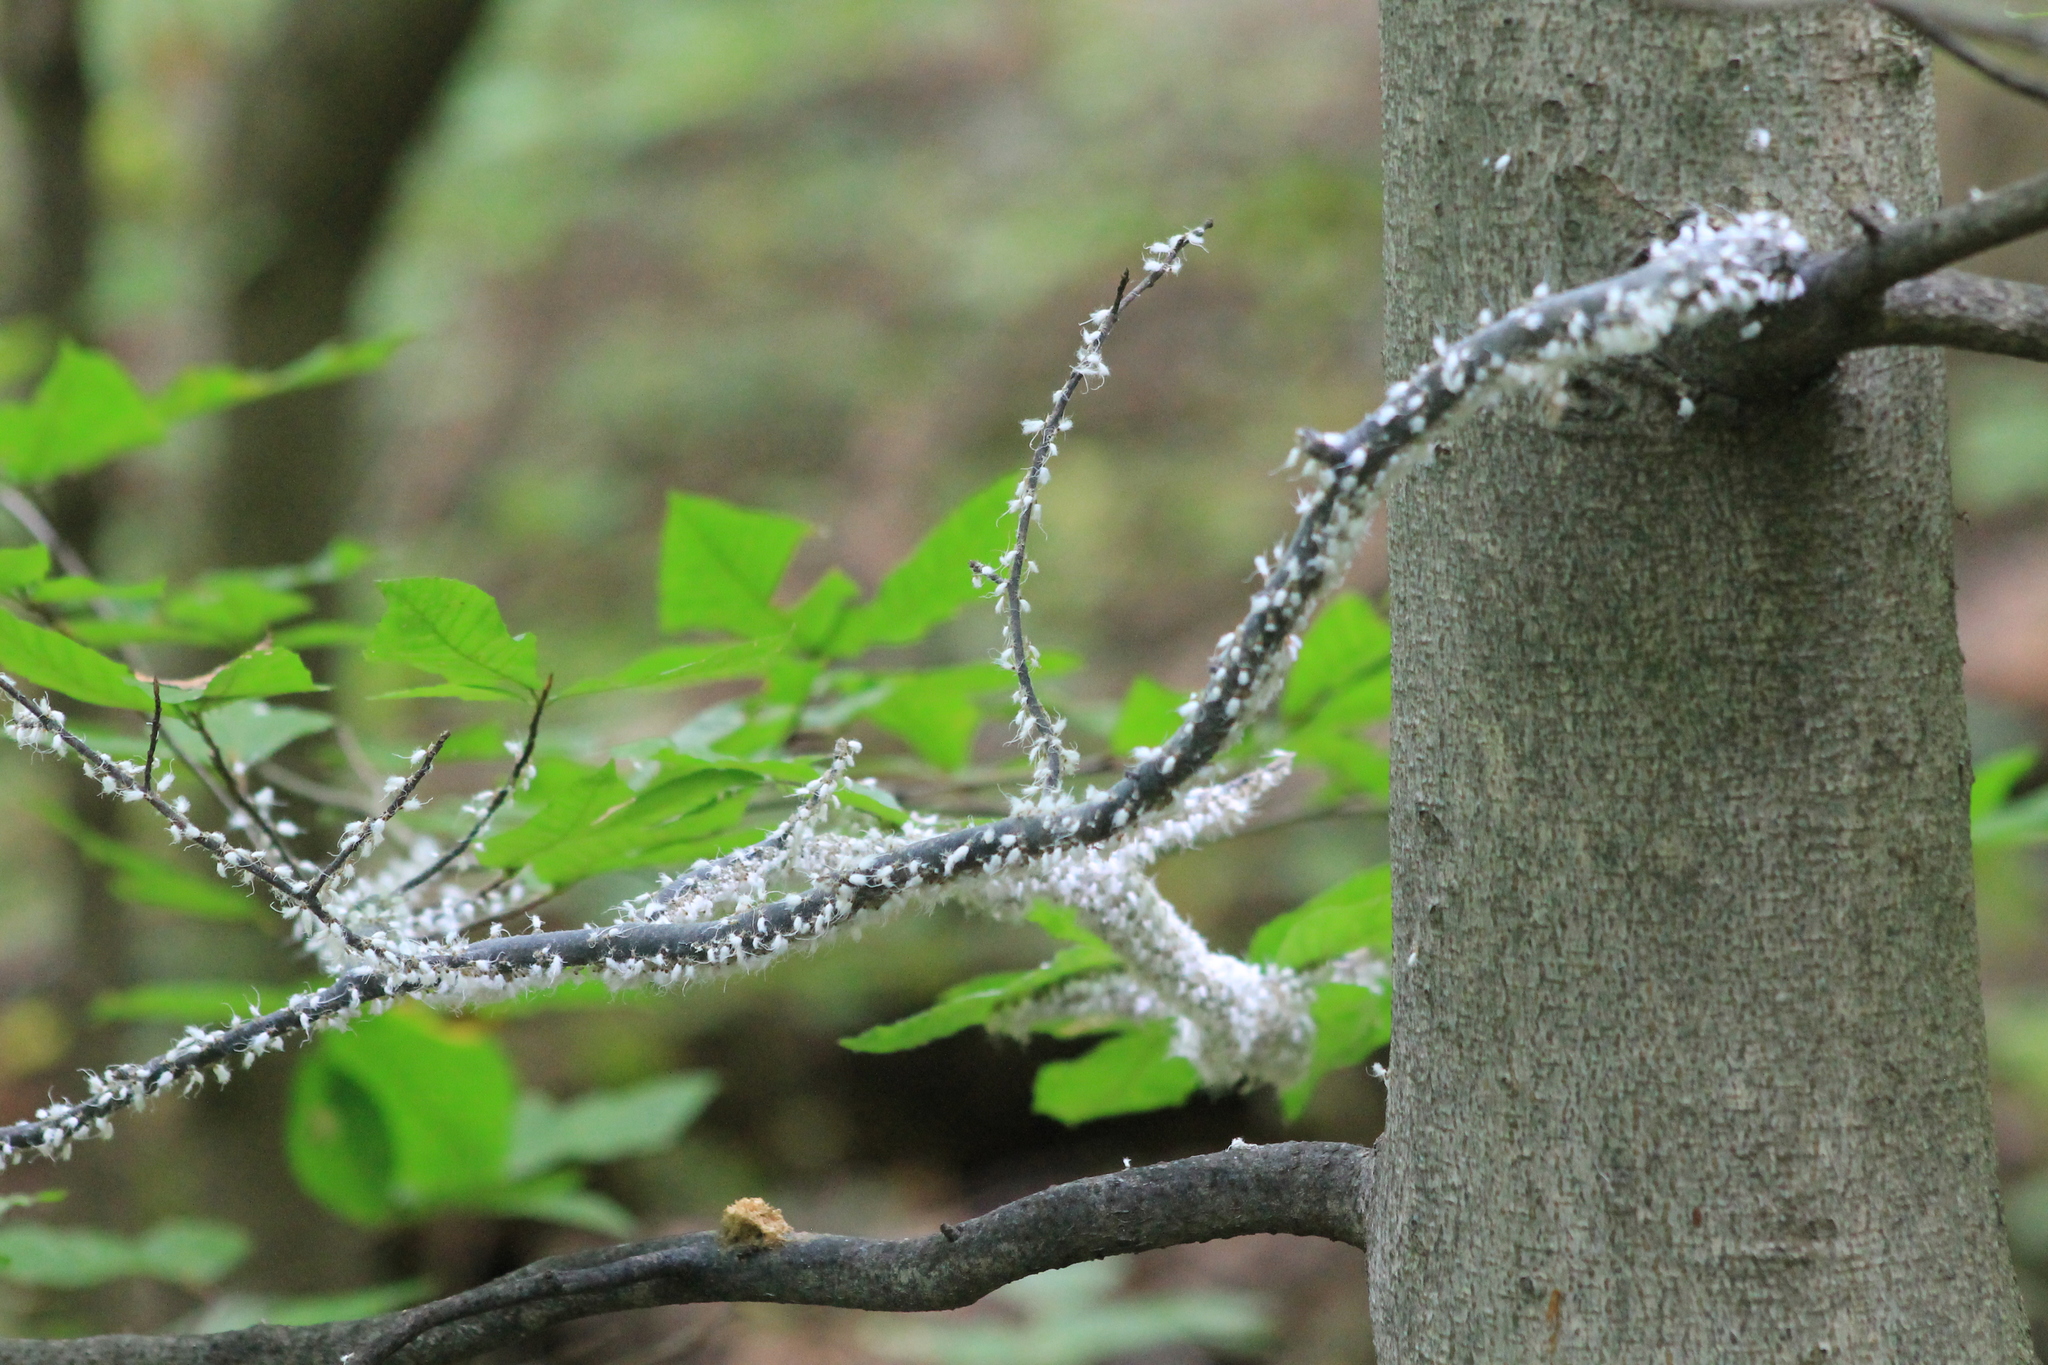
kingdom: Animalia
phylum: Arthropoda
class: Insecta
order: Hemiptera
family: Aphididae
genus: Grylloprociphilus
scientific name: Grylloprociphilus imbricator
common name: Beech blight aphid
